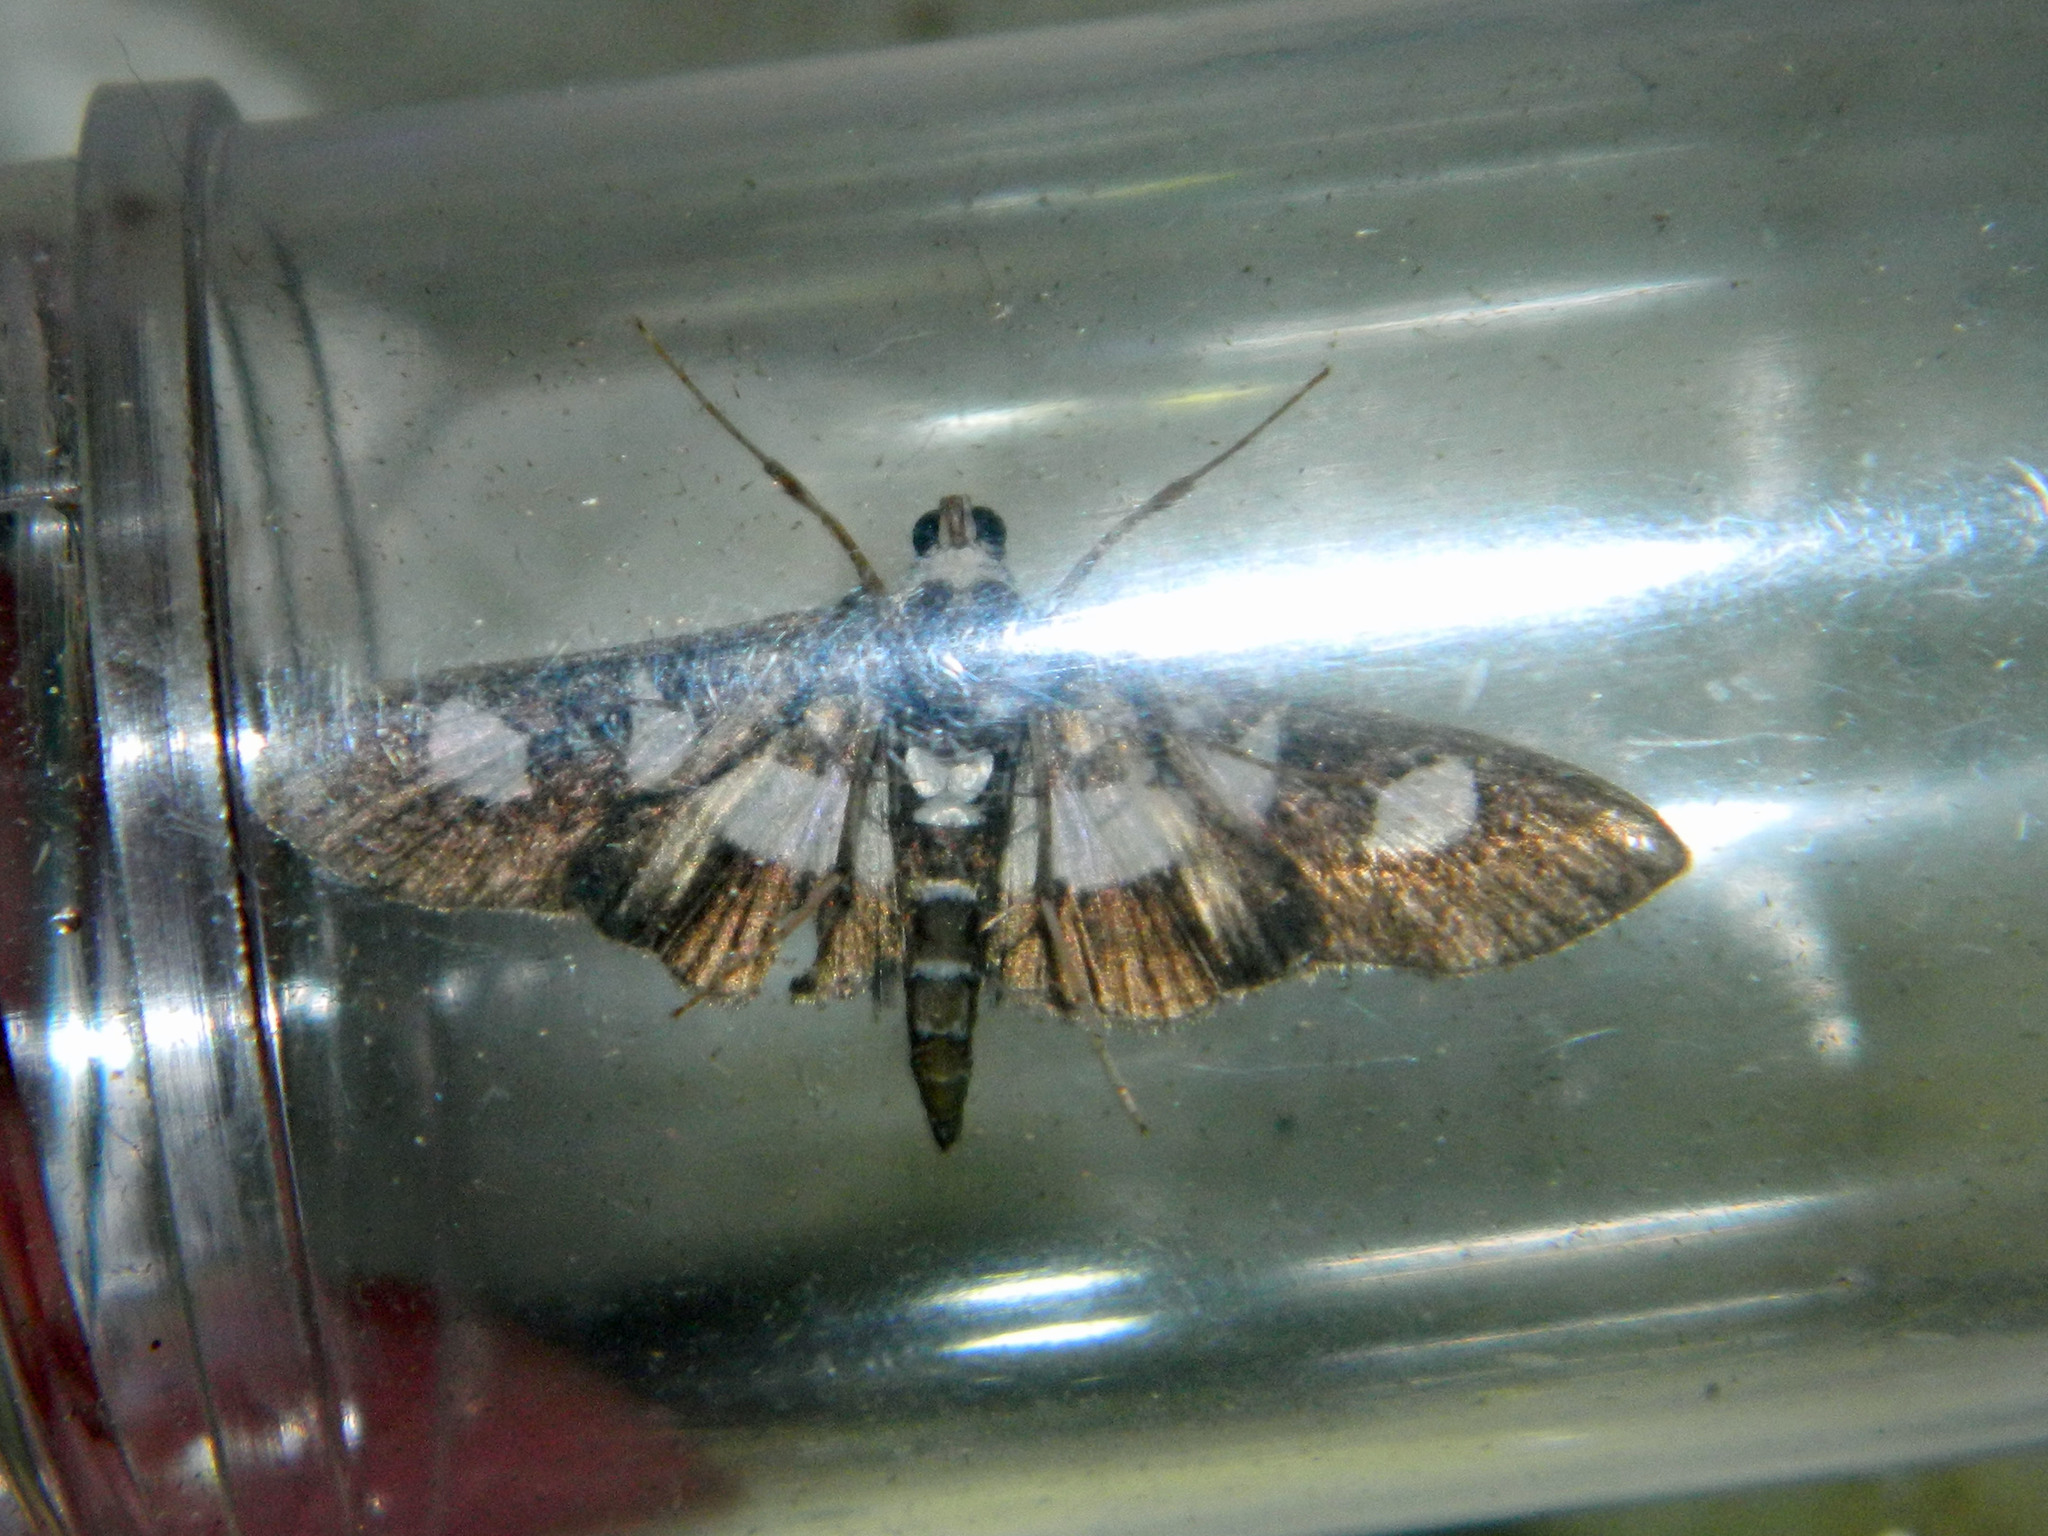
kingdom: Animalia
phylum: Arthropoda
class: Insecta
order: Lepidoptera
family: Crambidae
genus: Desmia
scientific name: Desmia funeralis
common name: Grape leaf folder moth
